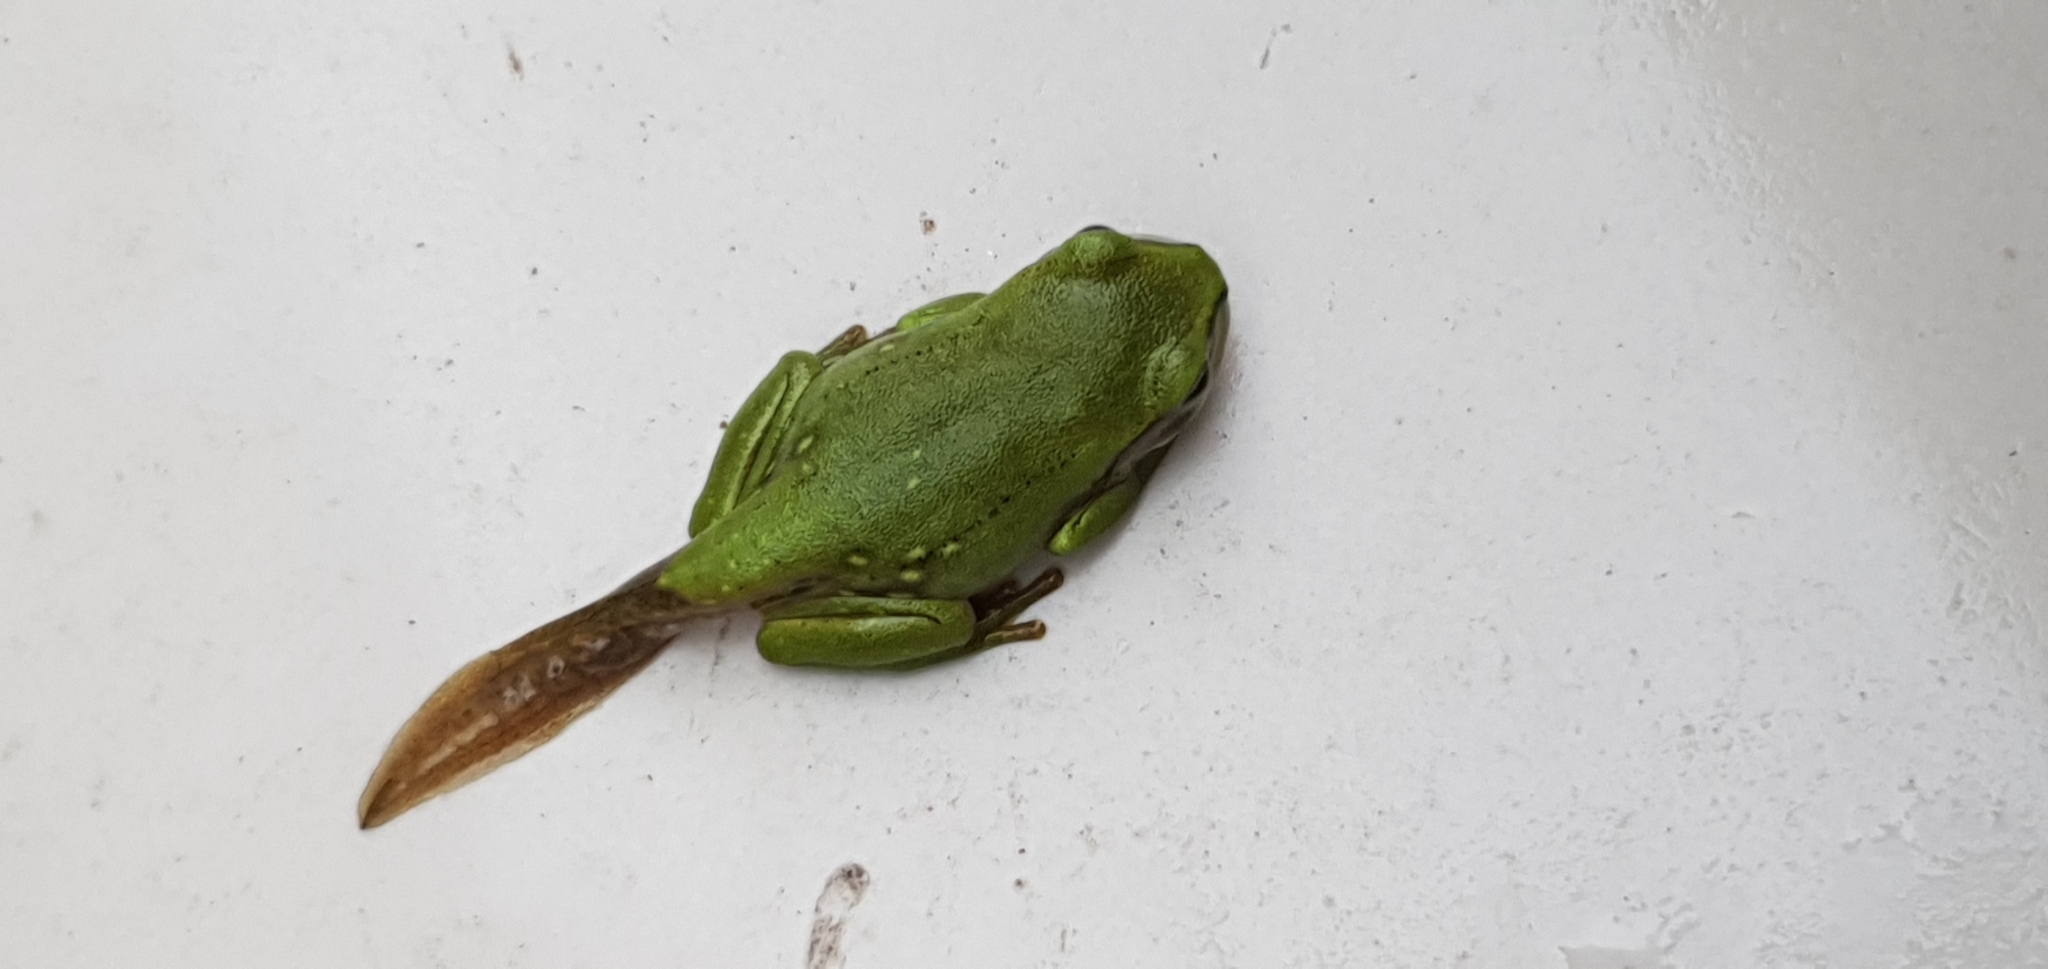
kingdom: Animalia
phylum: Chordata
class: Amphibia
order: Anura
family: Pelodryadidae
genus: Ranoidea
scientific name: Ranoidea caerulea
